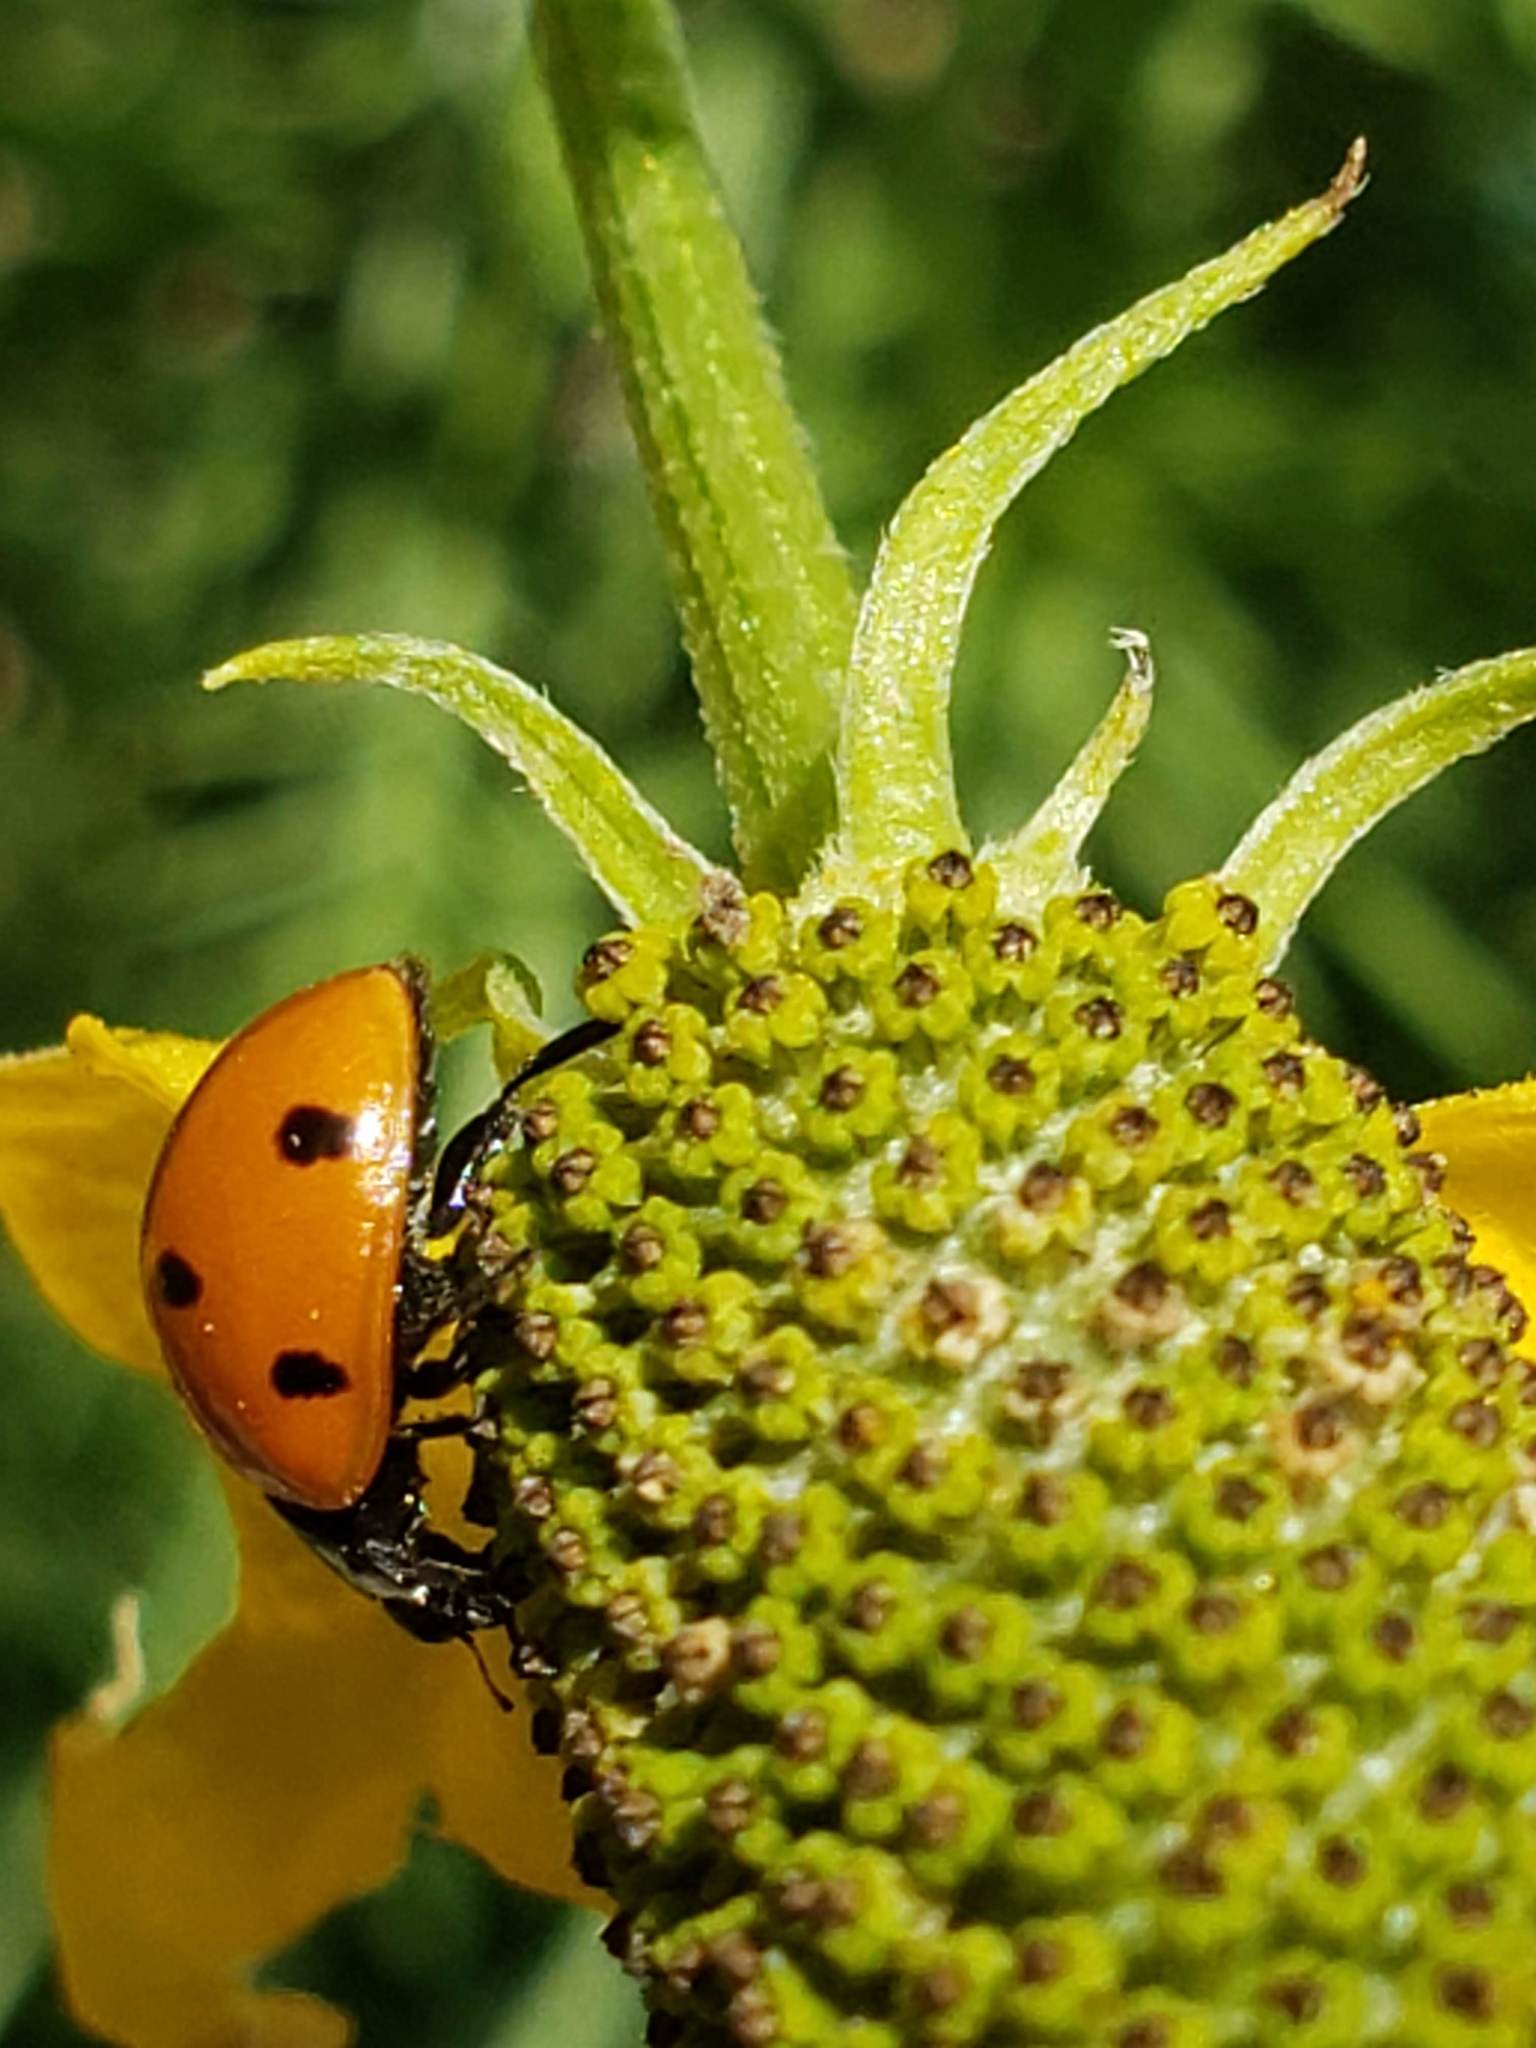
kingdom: Animalia
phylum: Arthropoda
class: Insecta
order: Coleoptera
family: Coccinellidae
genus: Coccinella
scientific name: Coccinella septempunctata
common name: Sevenspotted lady beetle
